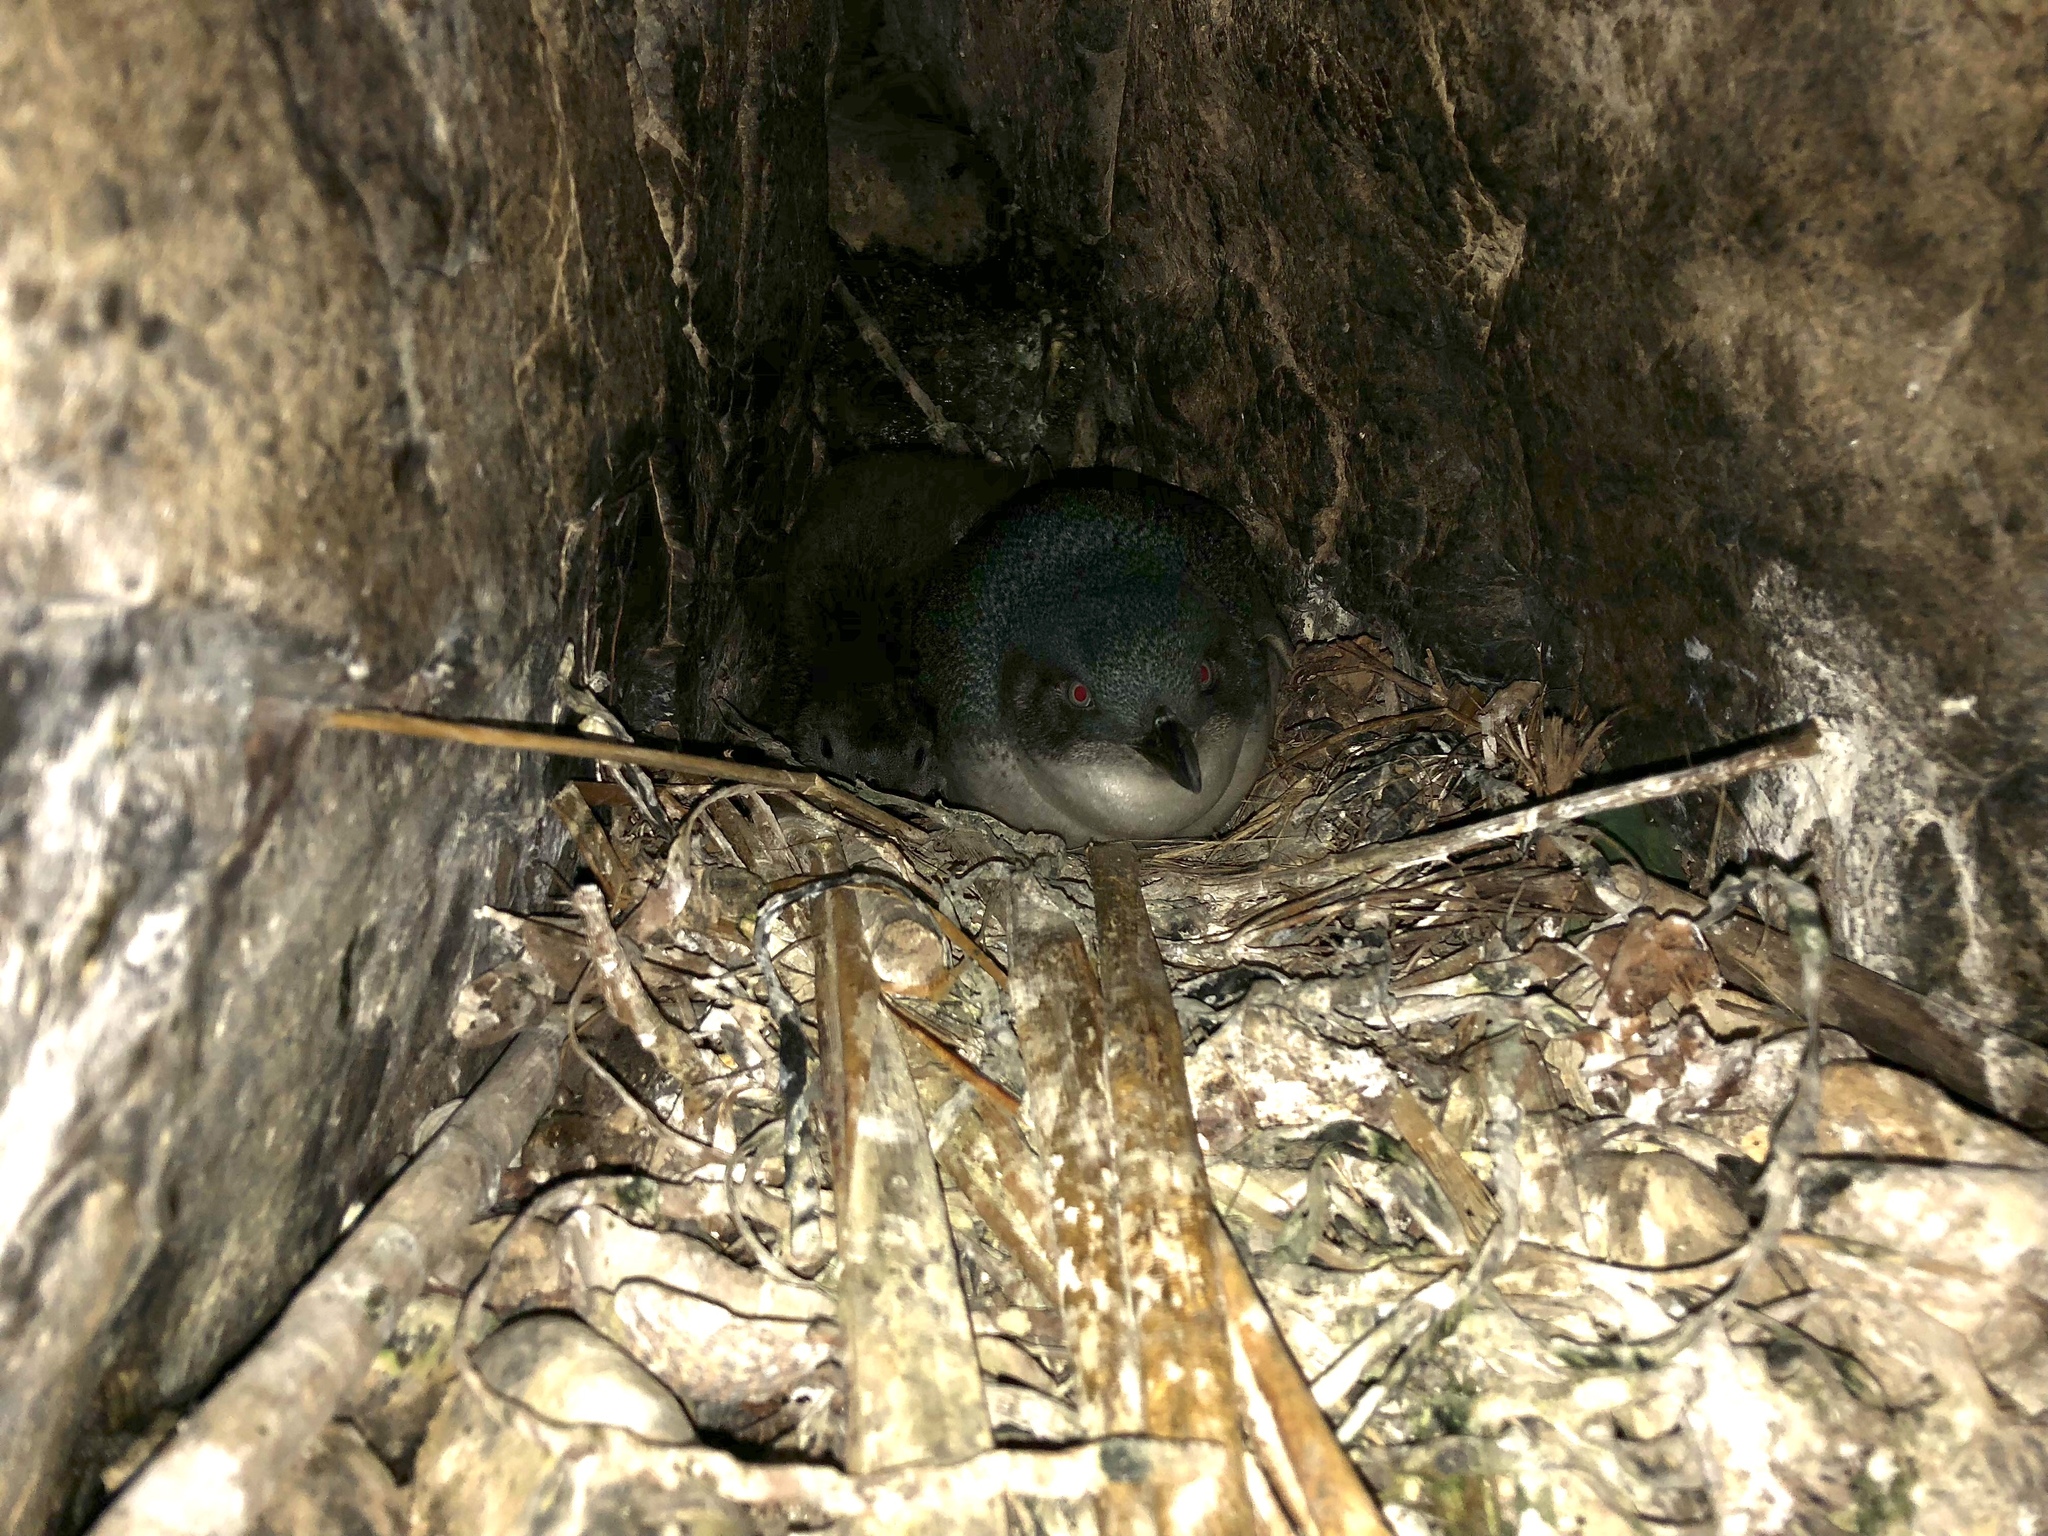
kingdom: Animalia
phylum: Chordata
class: Aves
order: Sphenisciformes
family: Spheniscidae
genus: Eudyptula
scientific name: Eudyptula minor
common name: Little penguin
